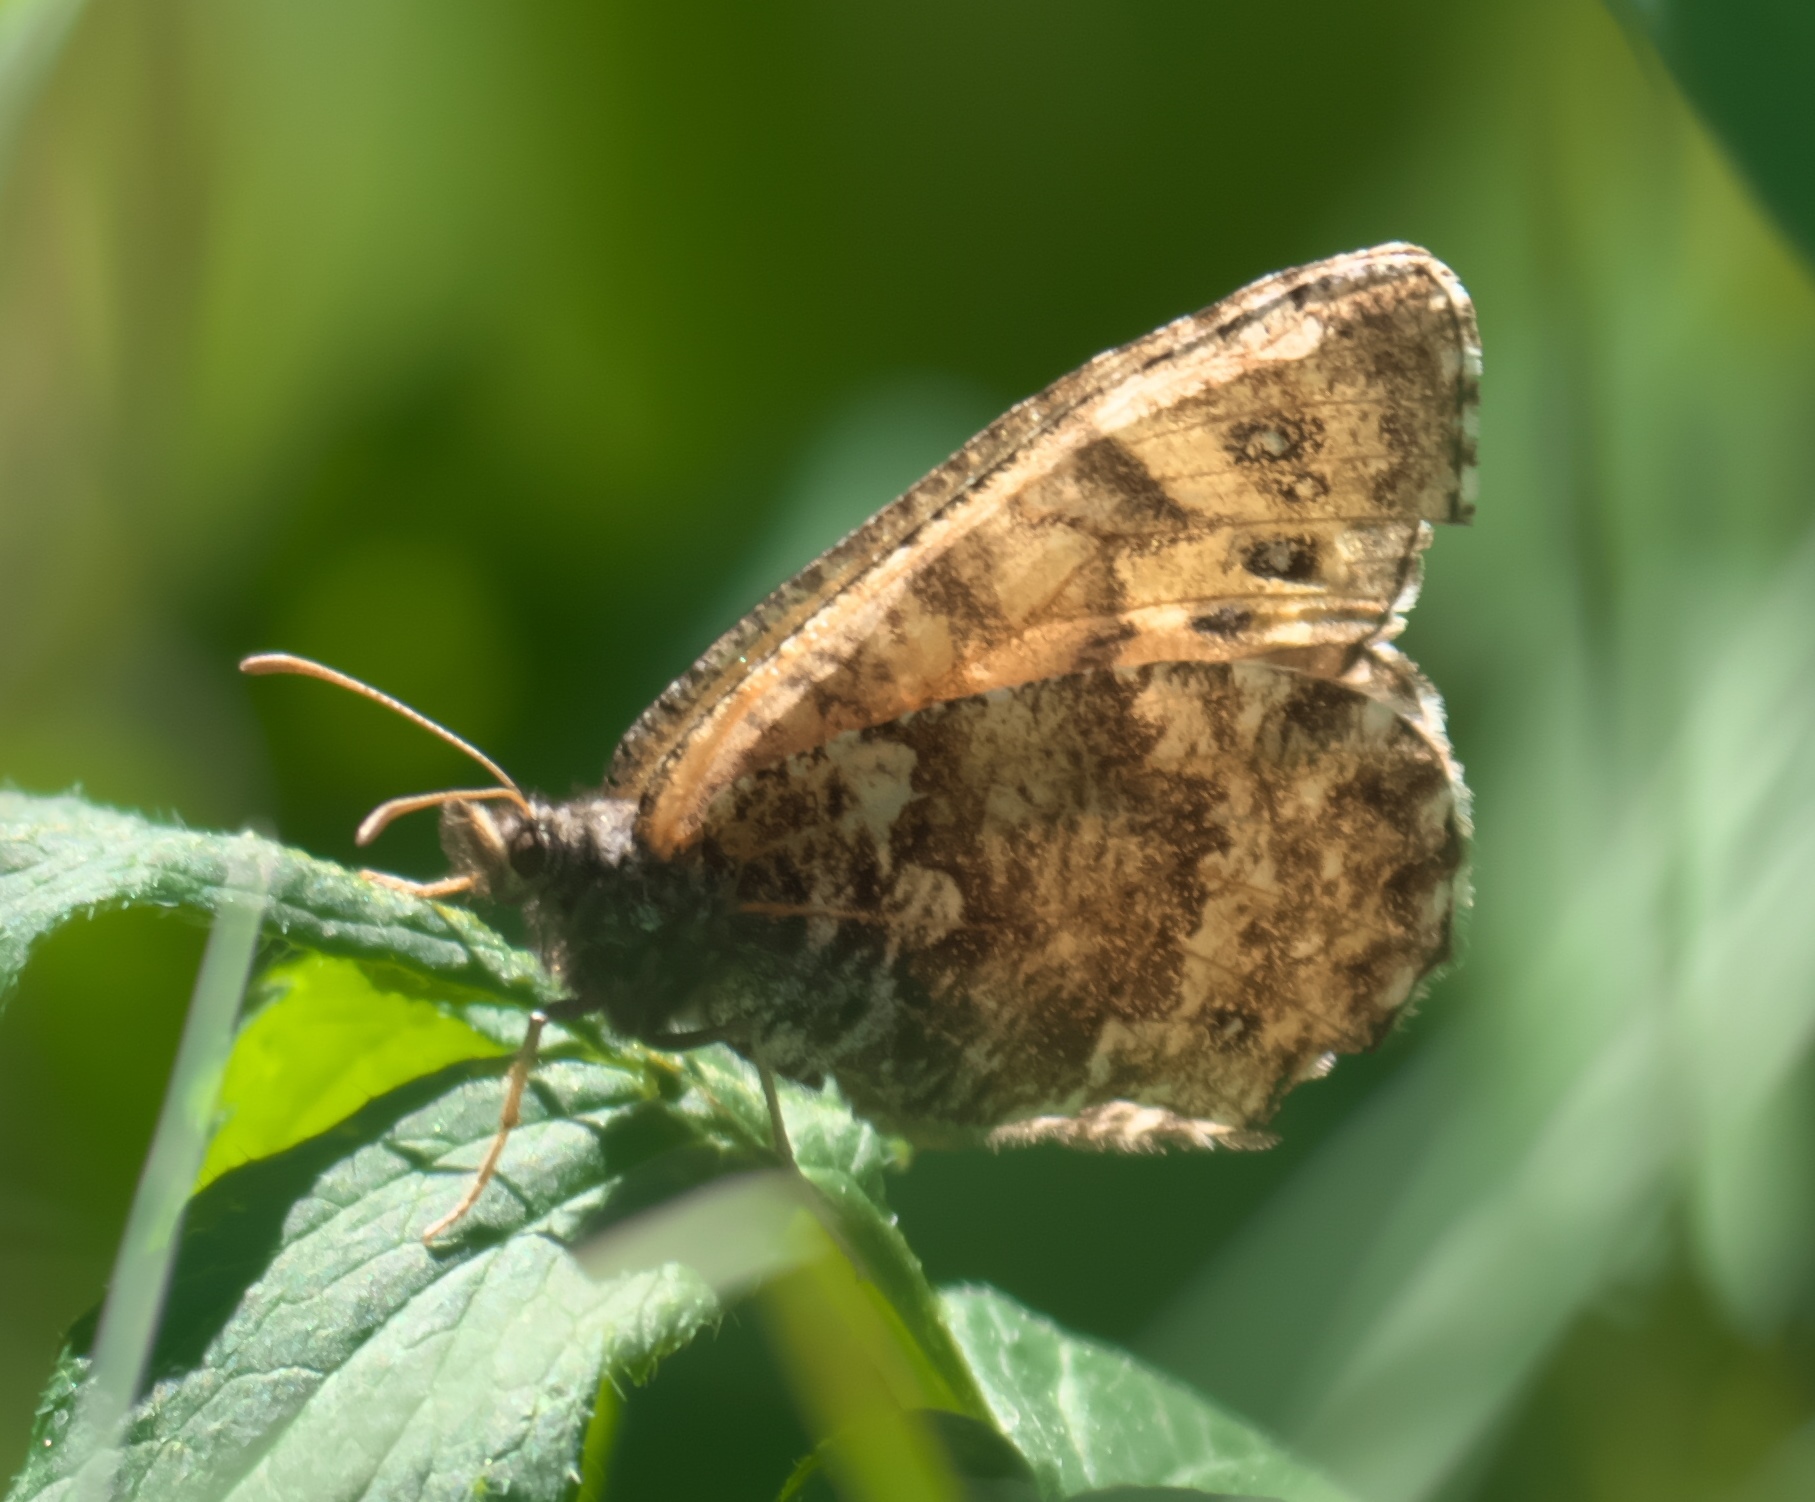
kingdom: Animalia
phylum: Arthropoda
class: Insecta
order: Lepidoptera
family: Nymphalidae
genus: Oeneis
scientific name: Oeneis chryxus
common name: Chryxus arctic
